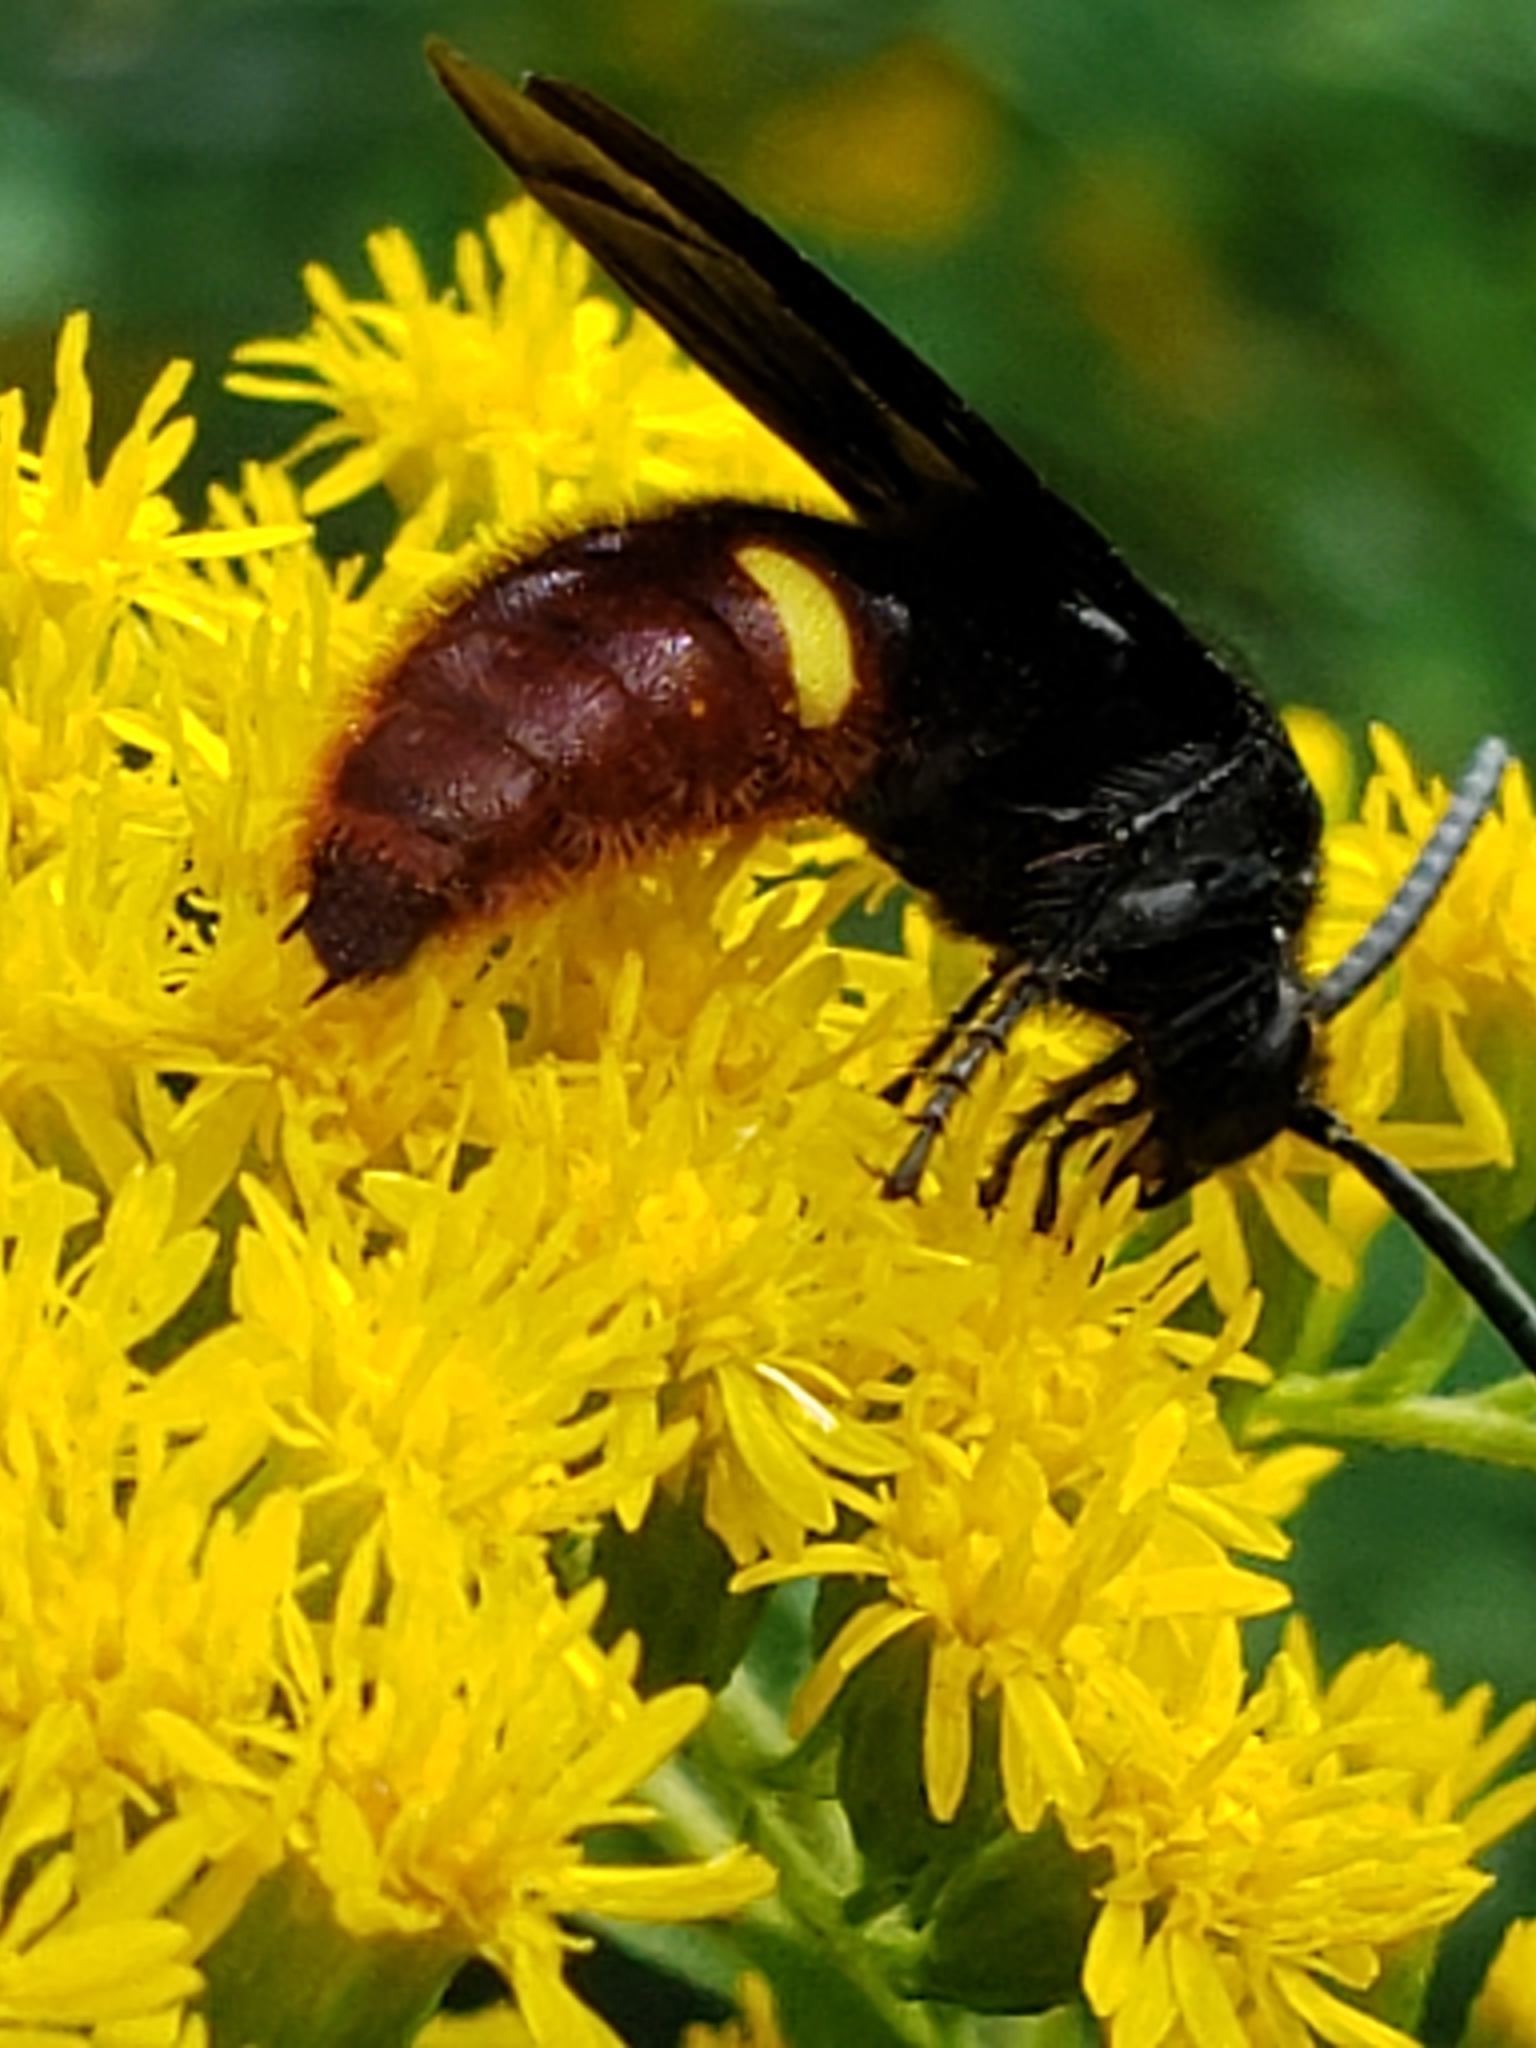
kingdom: Animalia
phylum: Arthropoda
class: Insecta
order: Hymenoptera
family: Scoliidae
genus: Scolia
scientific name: Scolia dubia
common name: Blue-winged scoliid wasp
